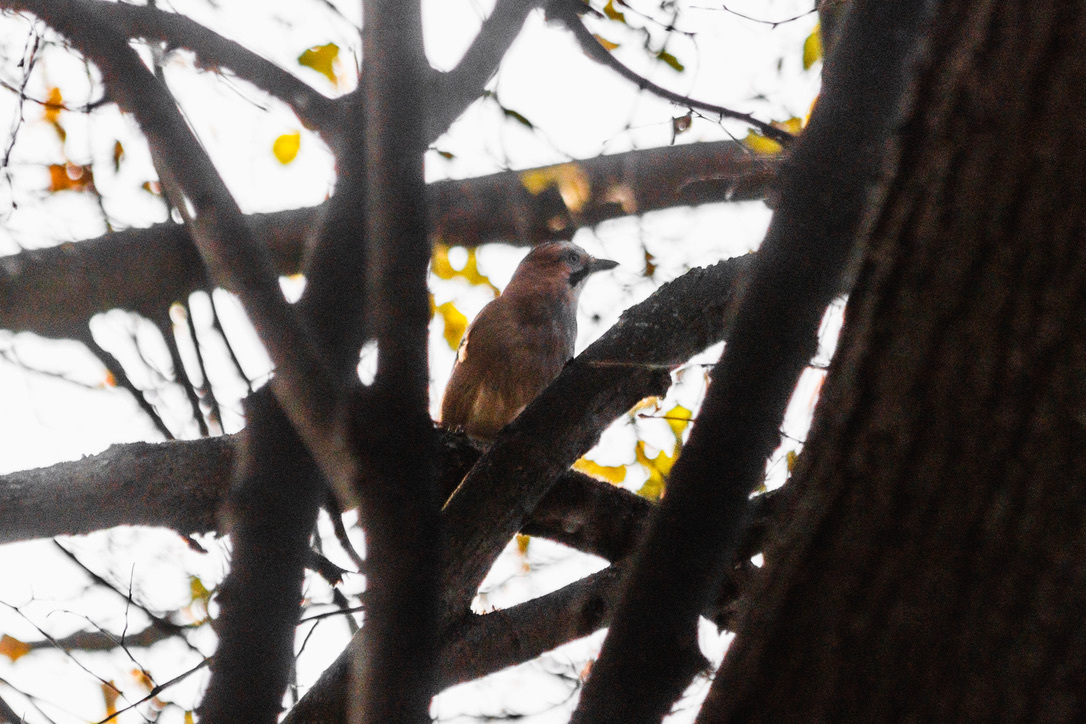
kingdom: Animalia
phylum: Chordata
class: Aves
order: Passeriformes
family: Corvidae
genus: Garrulus
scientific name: Garrulus glandarius
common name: Eurasian jay
